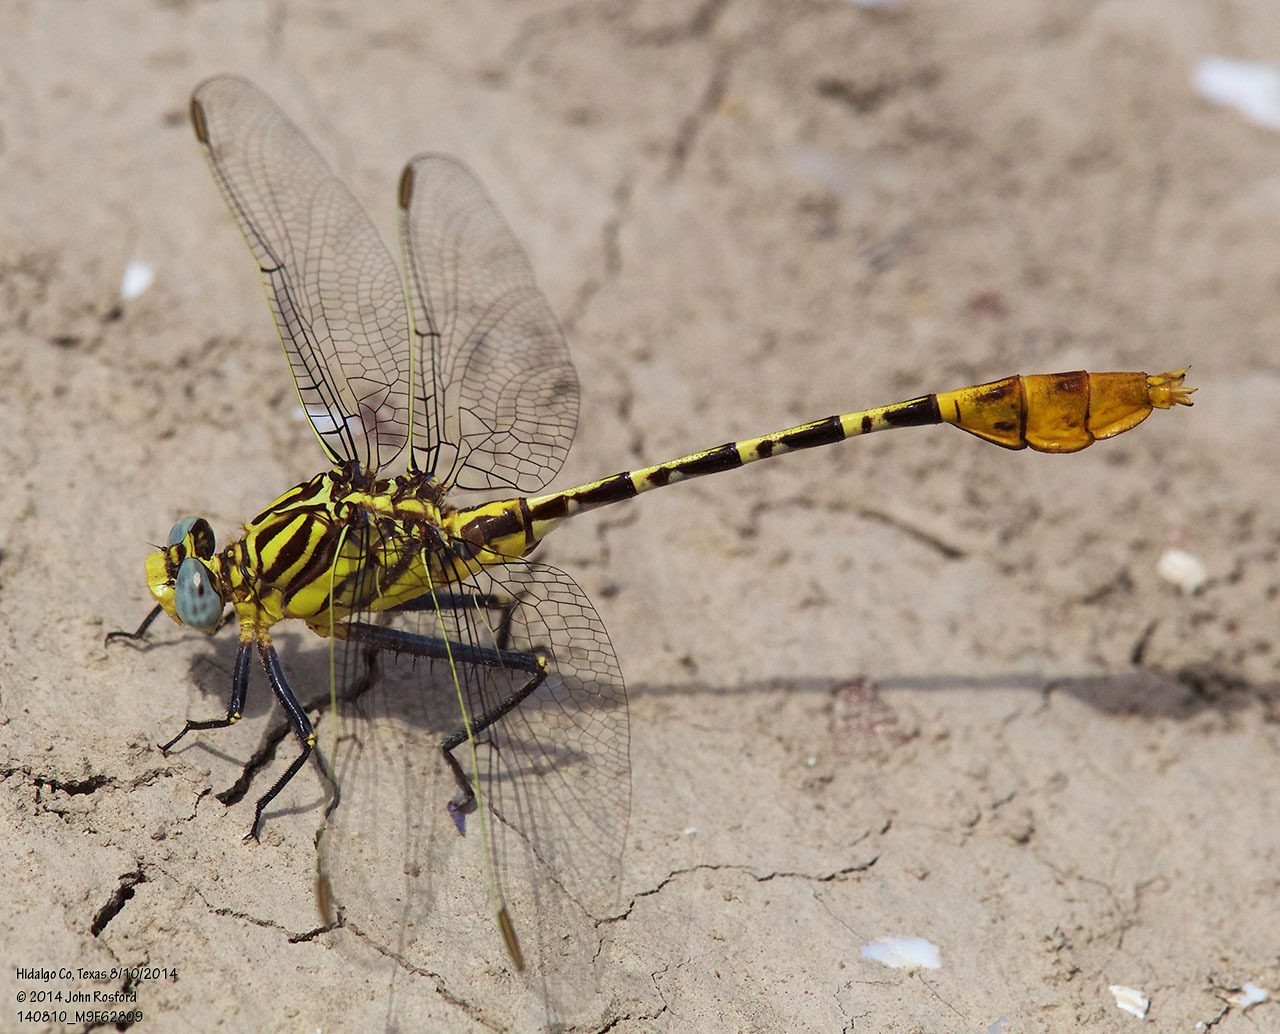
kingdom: Animalia
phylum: Arthropoda
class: Insecta
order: Odonata
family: Gomphidae
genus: Dromogomphus
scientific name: Dromogomphus spoliatus
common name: Flag-tailed spinyleg
